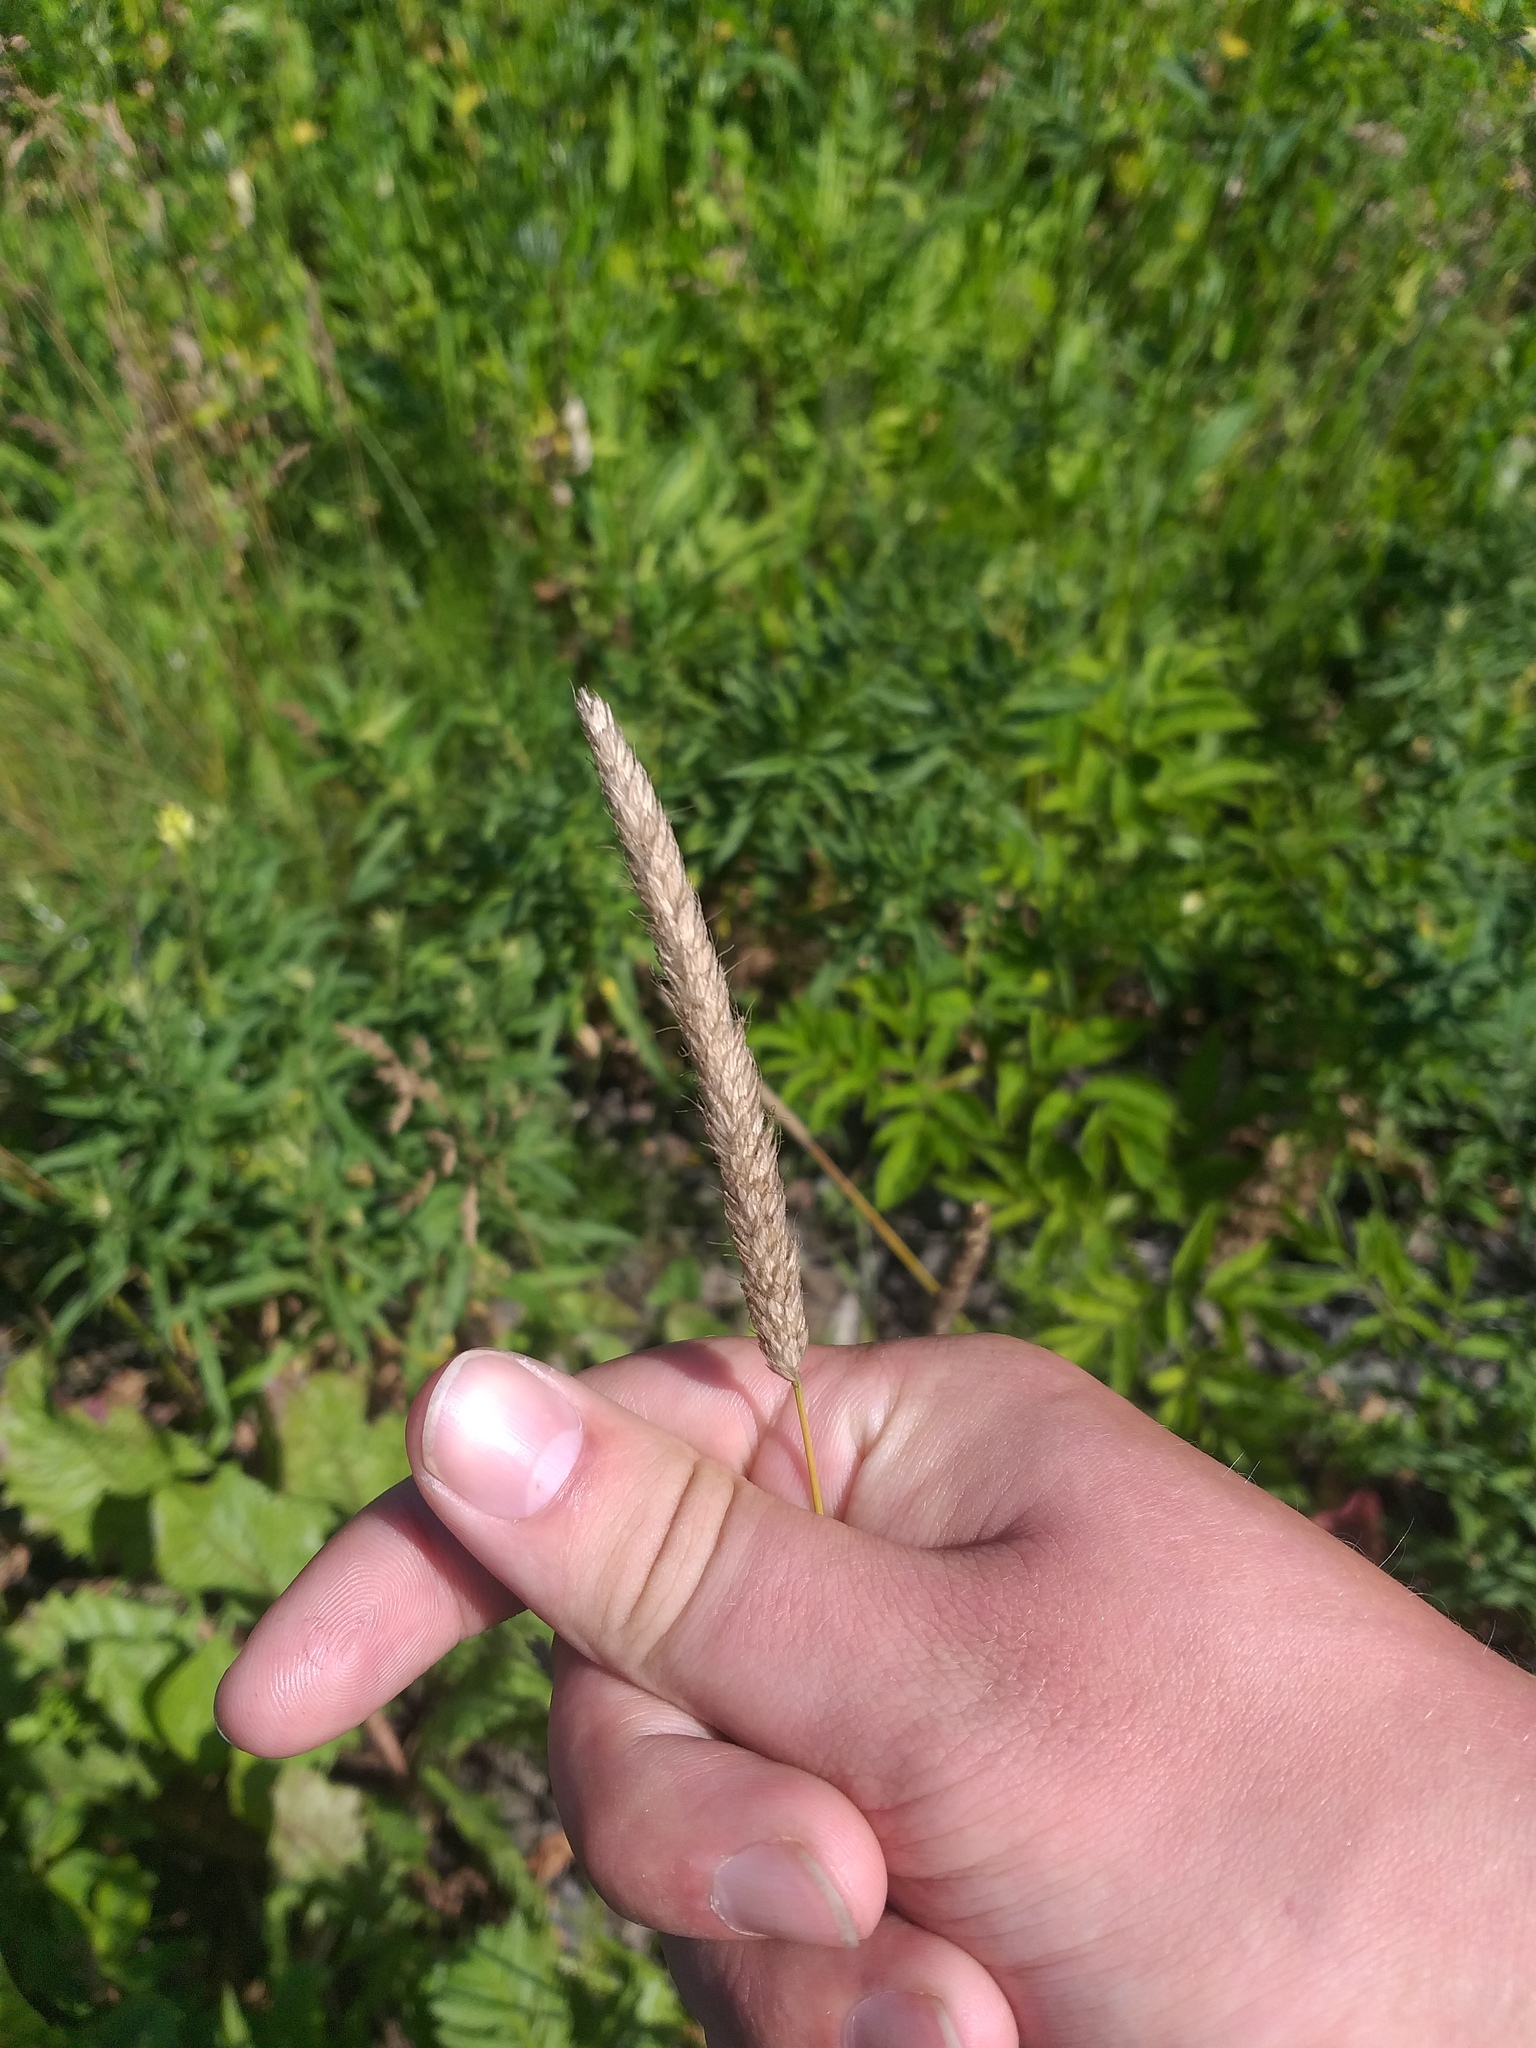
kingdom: Plantae
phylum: Tracheophyta
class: Liliopsida
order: Poales
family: Poaceae
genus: Alopecurus
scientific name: Alopecurus pratensis
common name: Meadow foxtail
